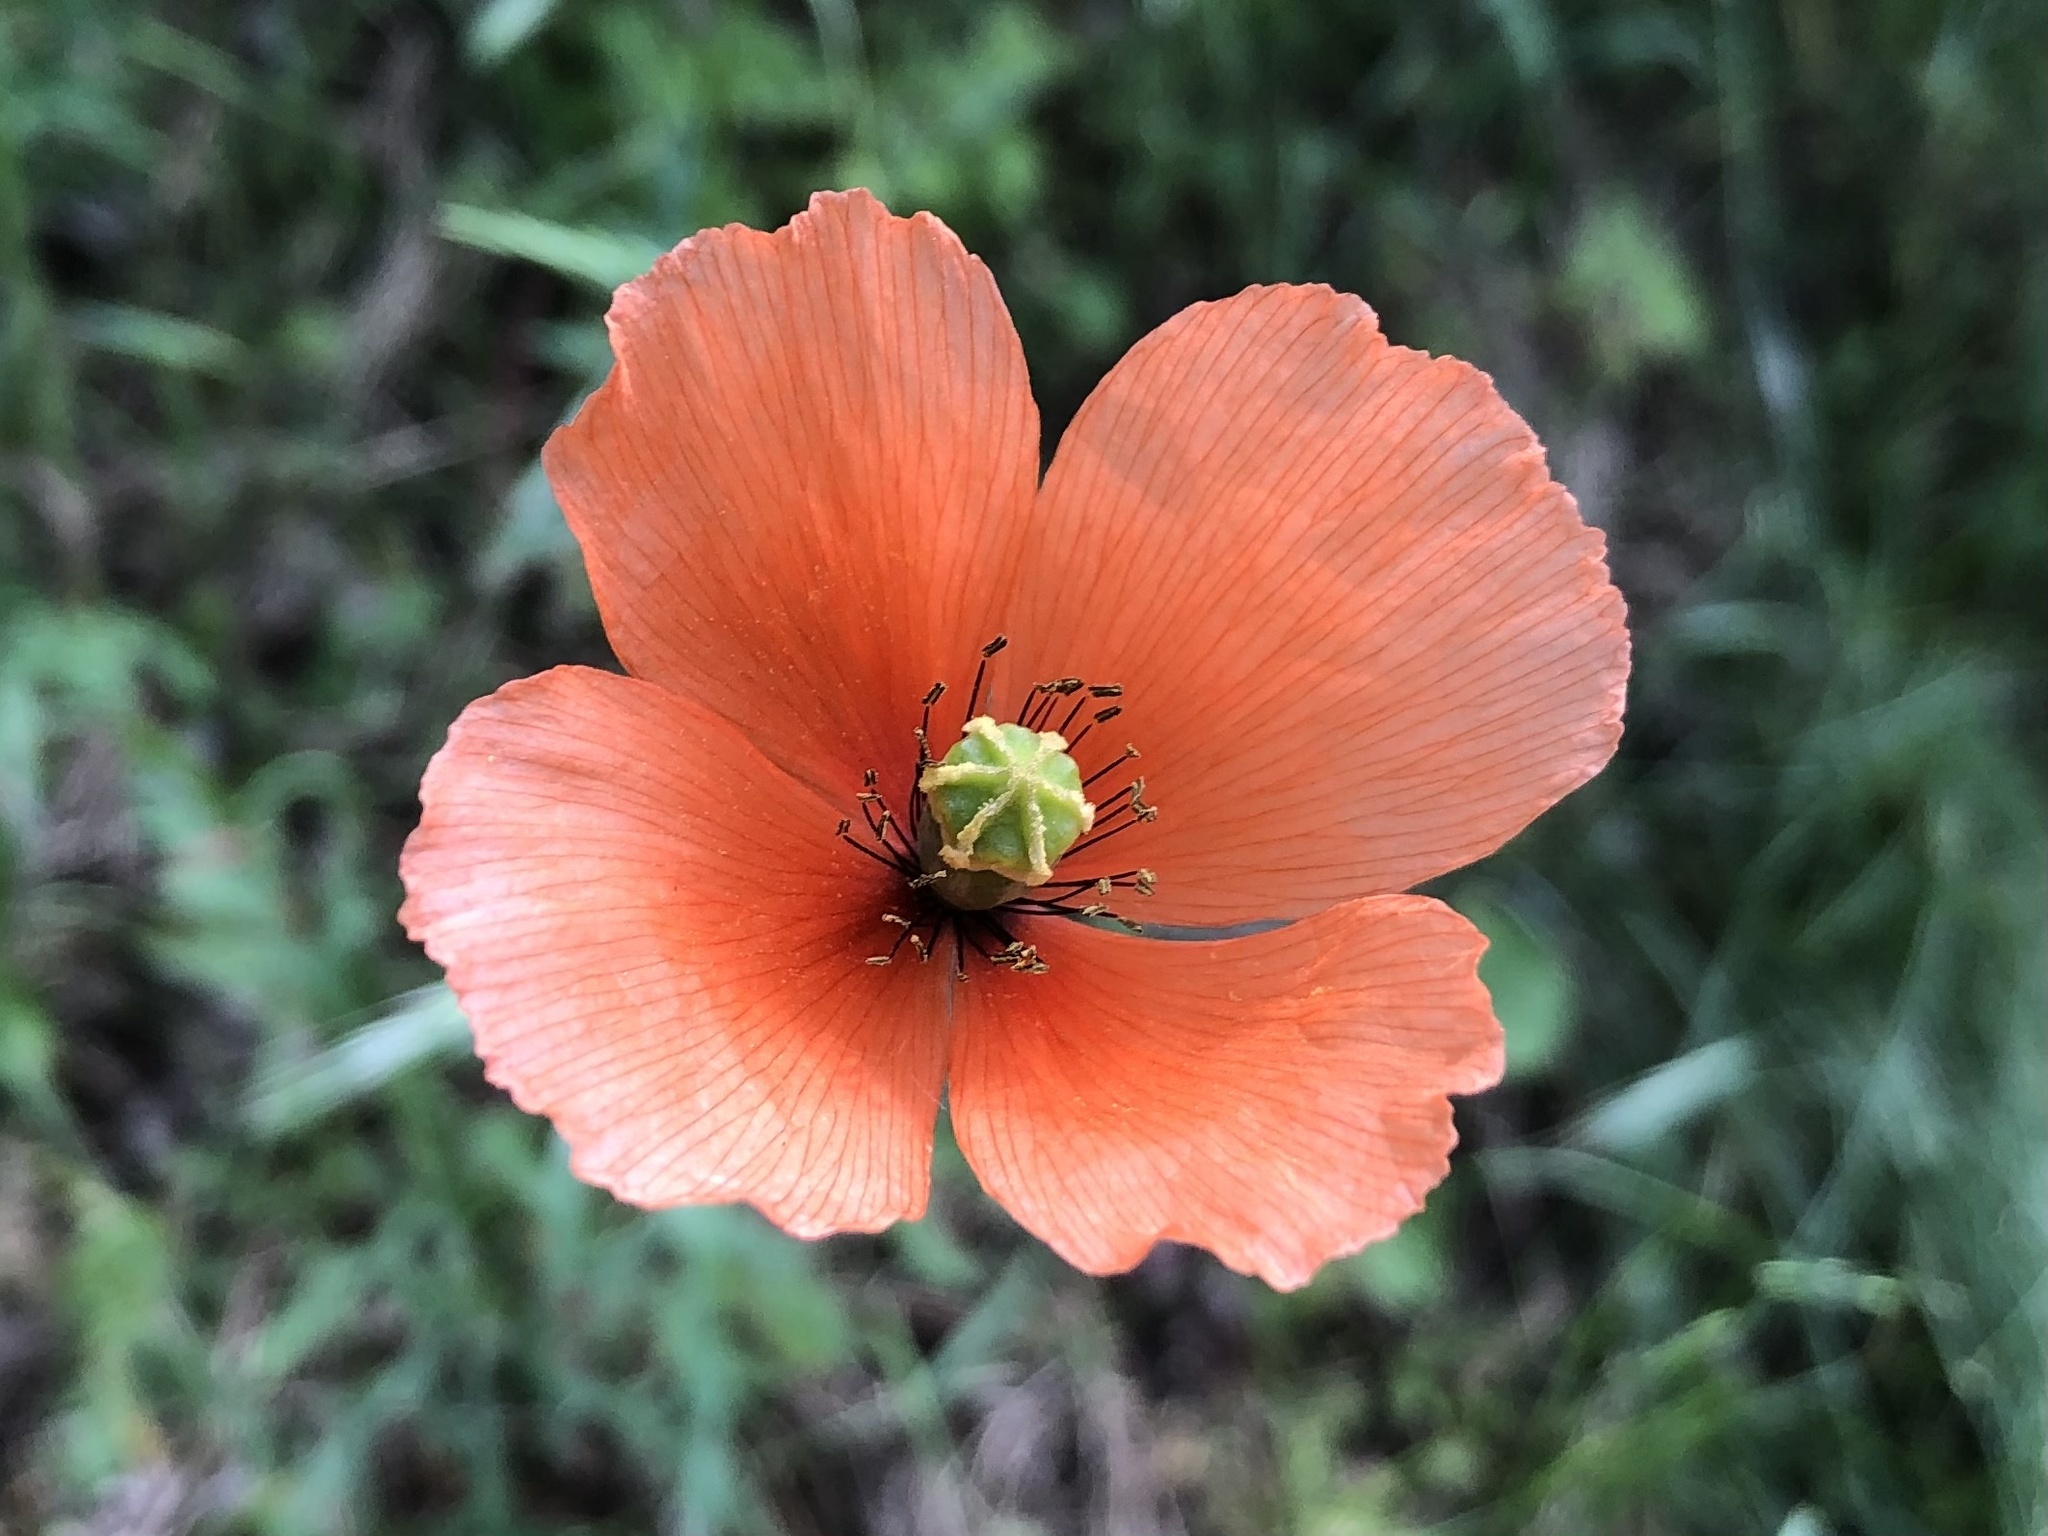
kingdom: Plantae
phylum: Tracheophyta
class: Magnoliopsida
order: Ranunculales
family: Papaveraceae
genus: Papaver
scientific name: Papaver dubium
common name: Long-headed poppy
